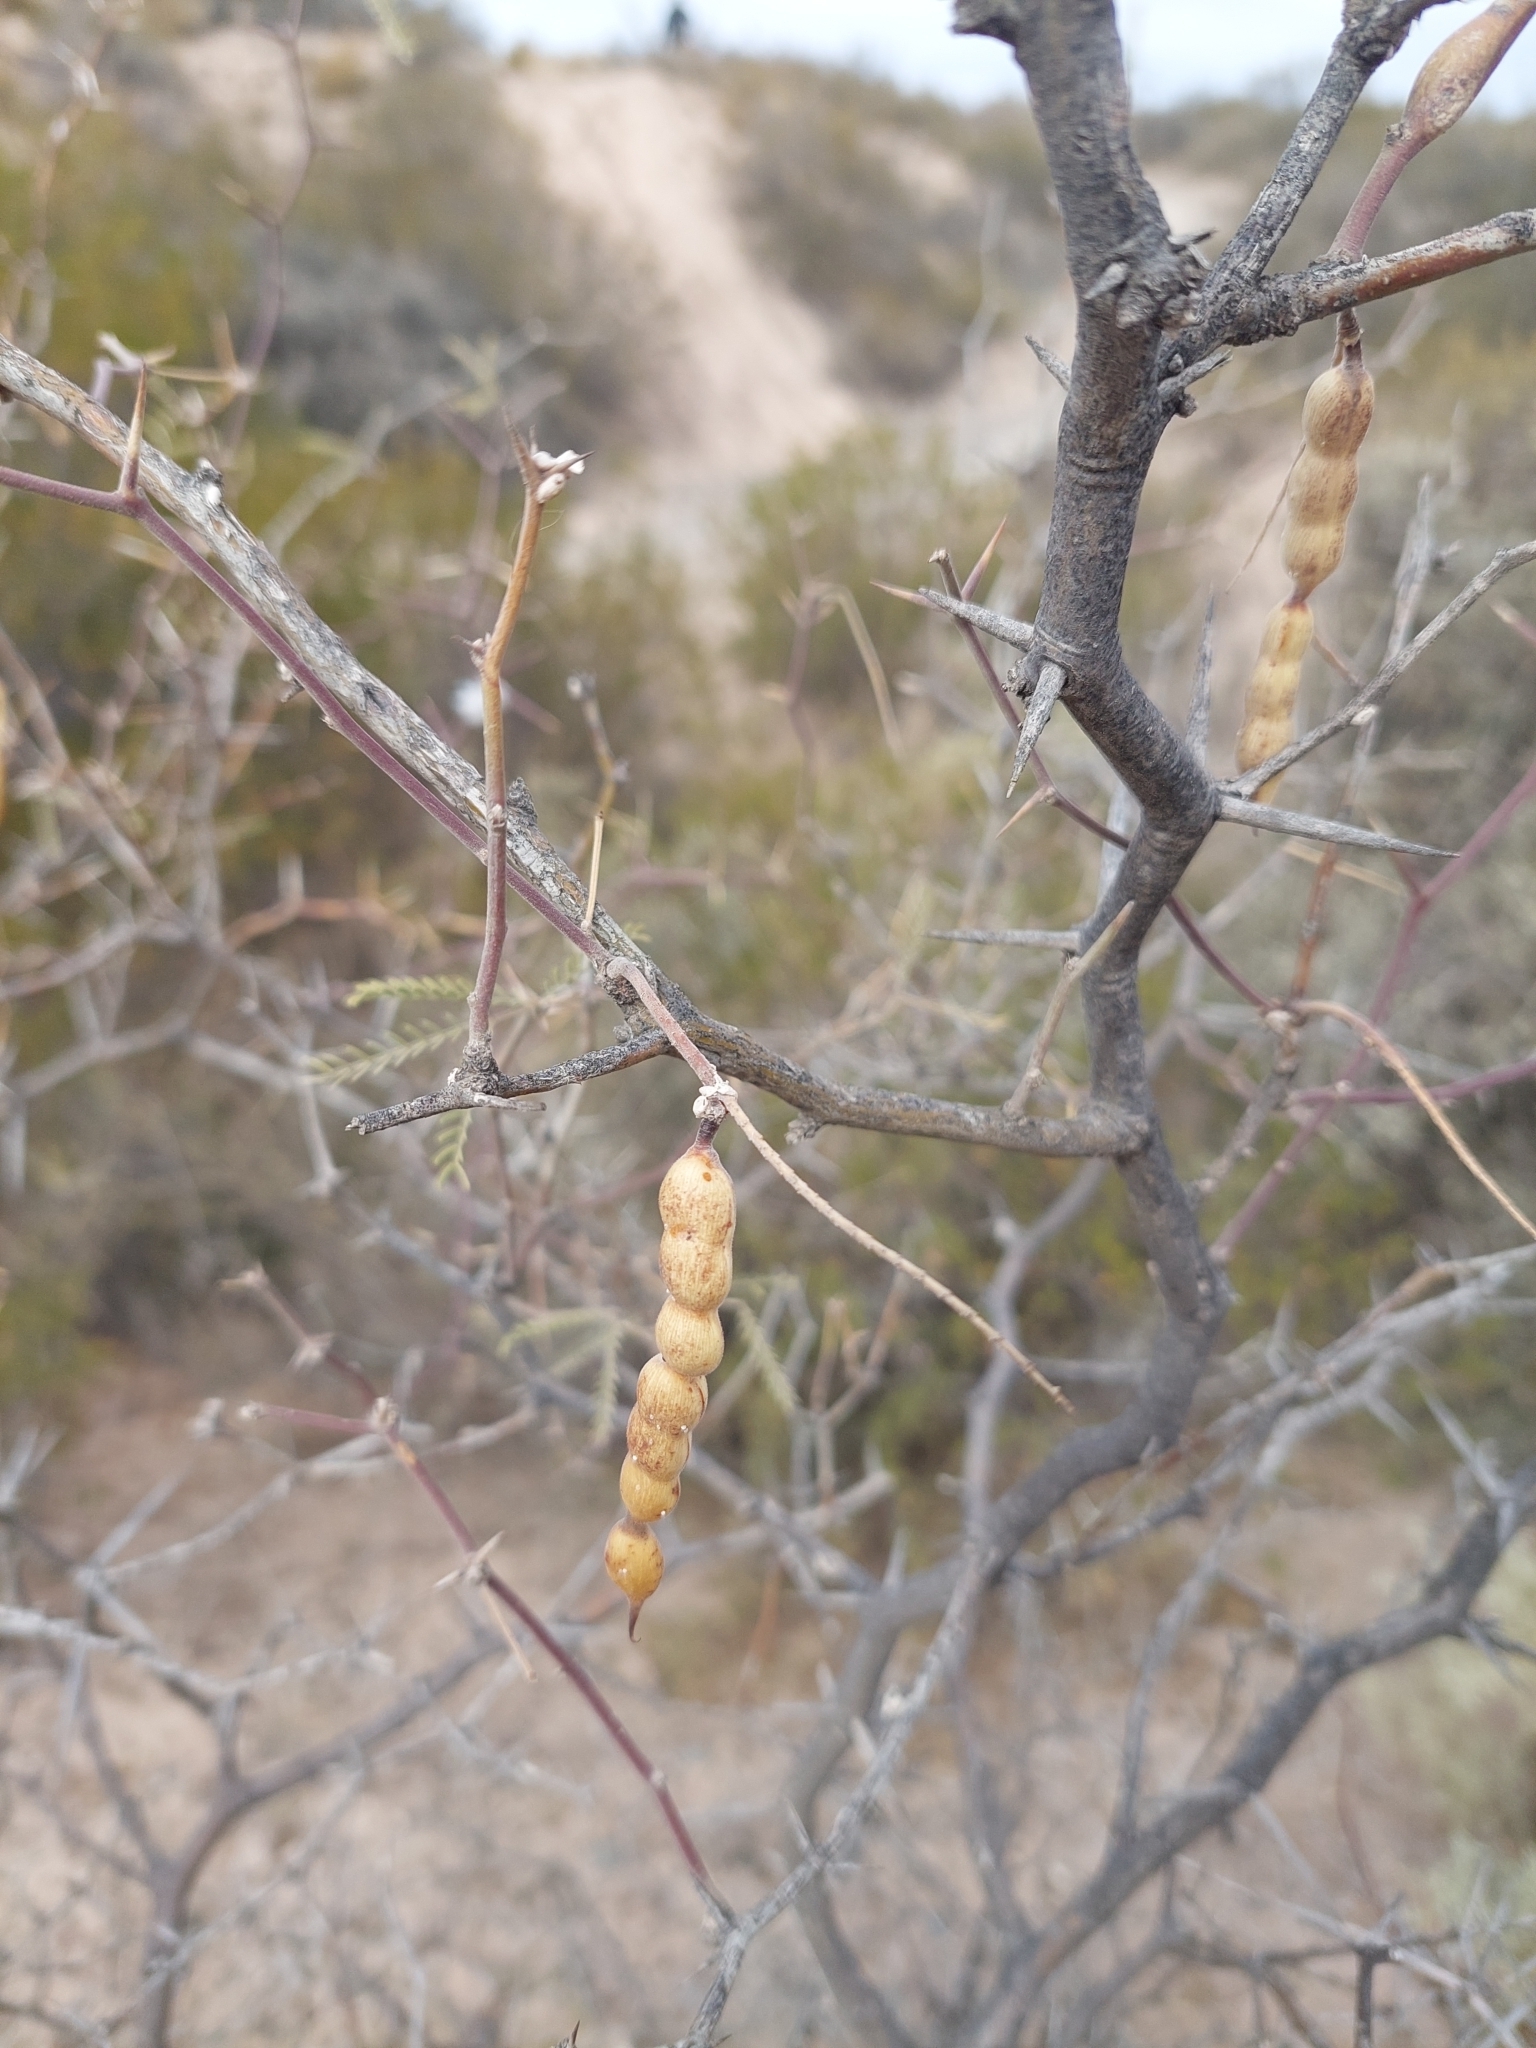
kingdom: Plantae
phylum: Tracheophyta
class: Magnoliopsida
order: Fabales
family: Fabaceae
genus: Prosopis
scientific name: Prosopis flexuosa
